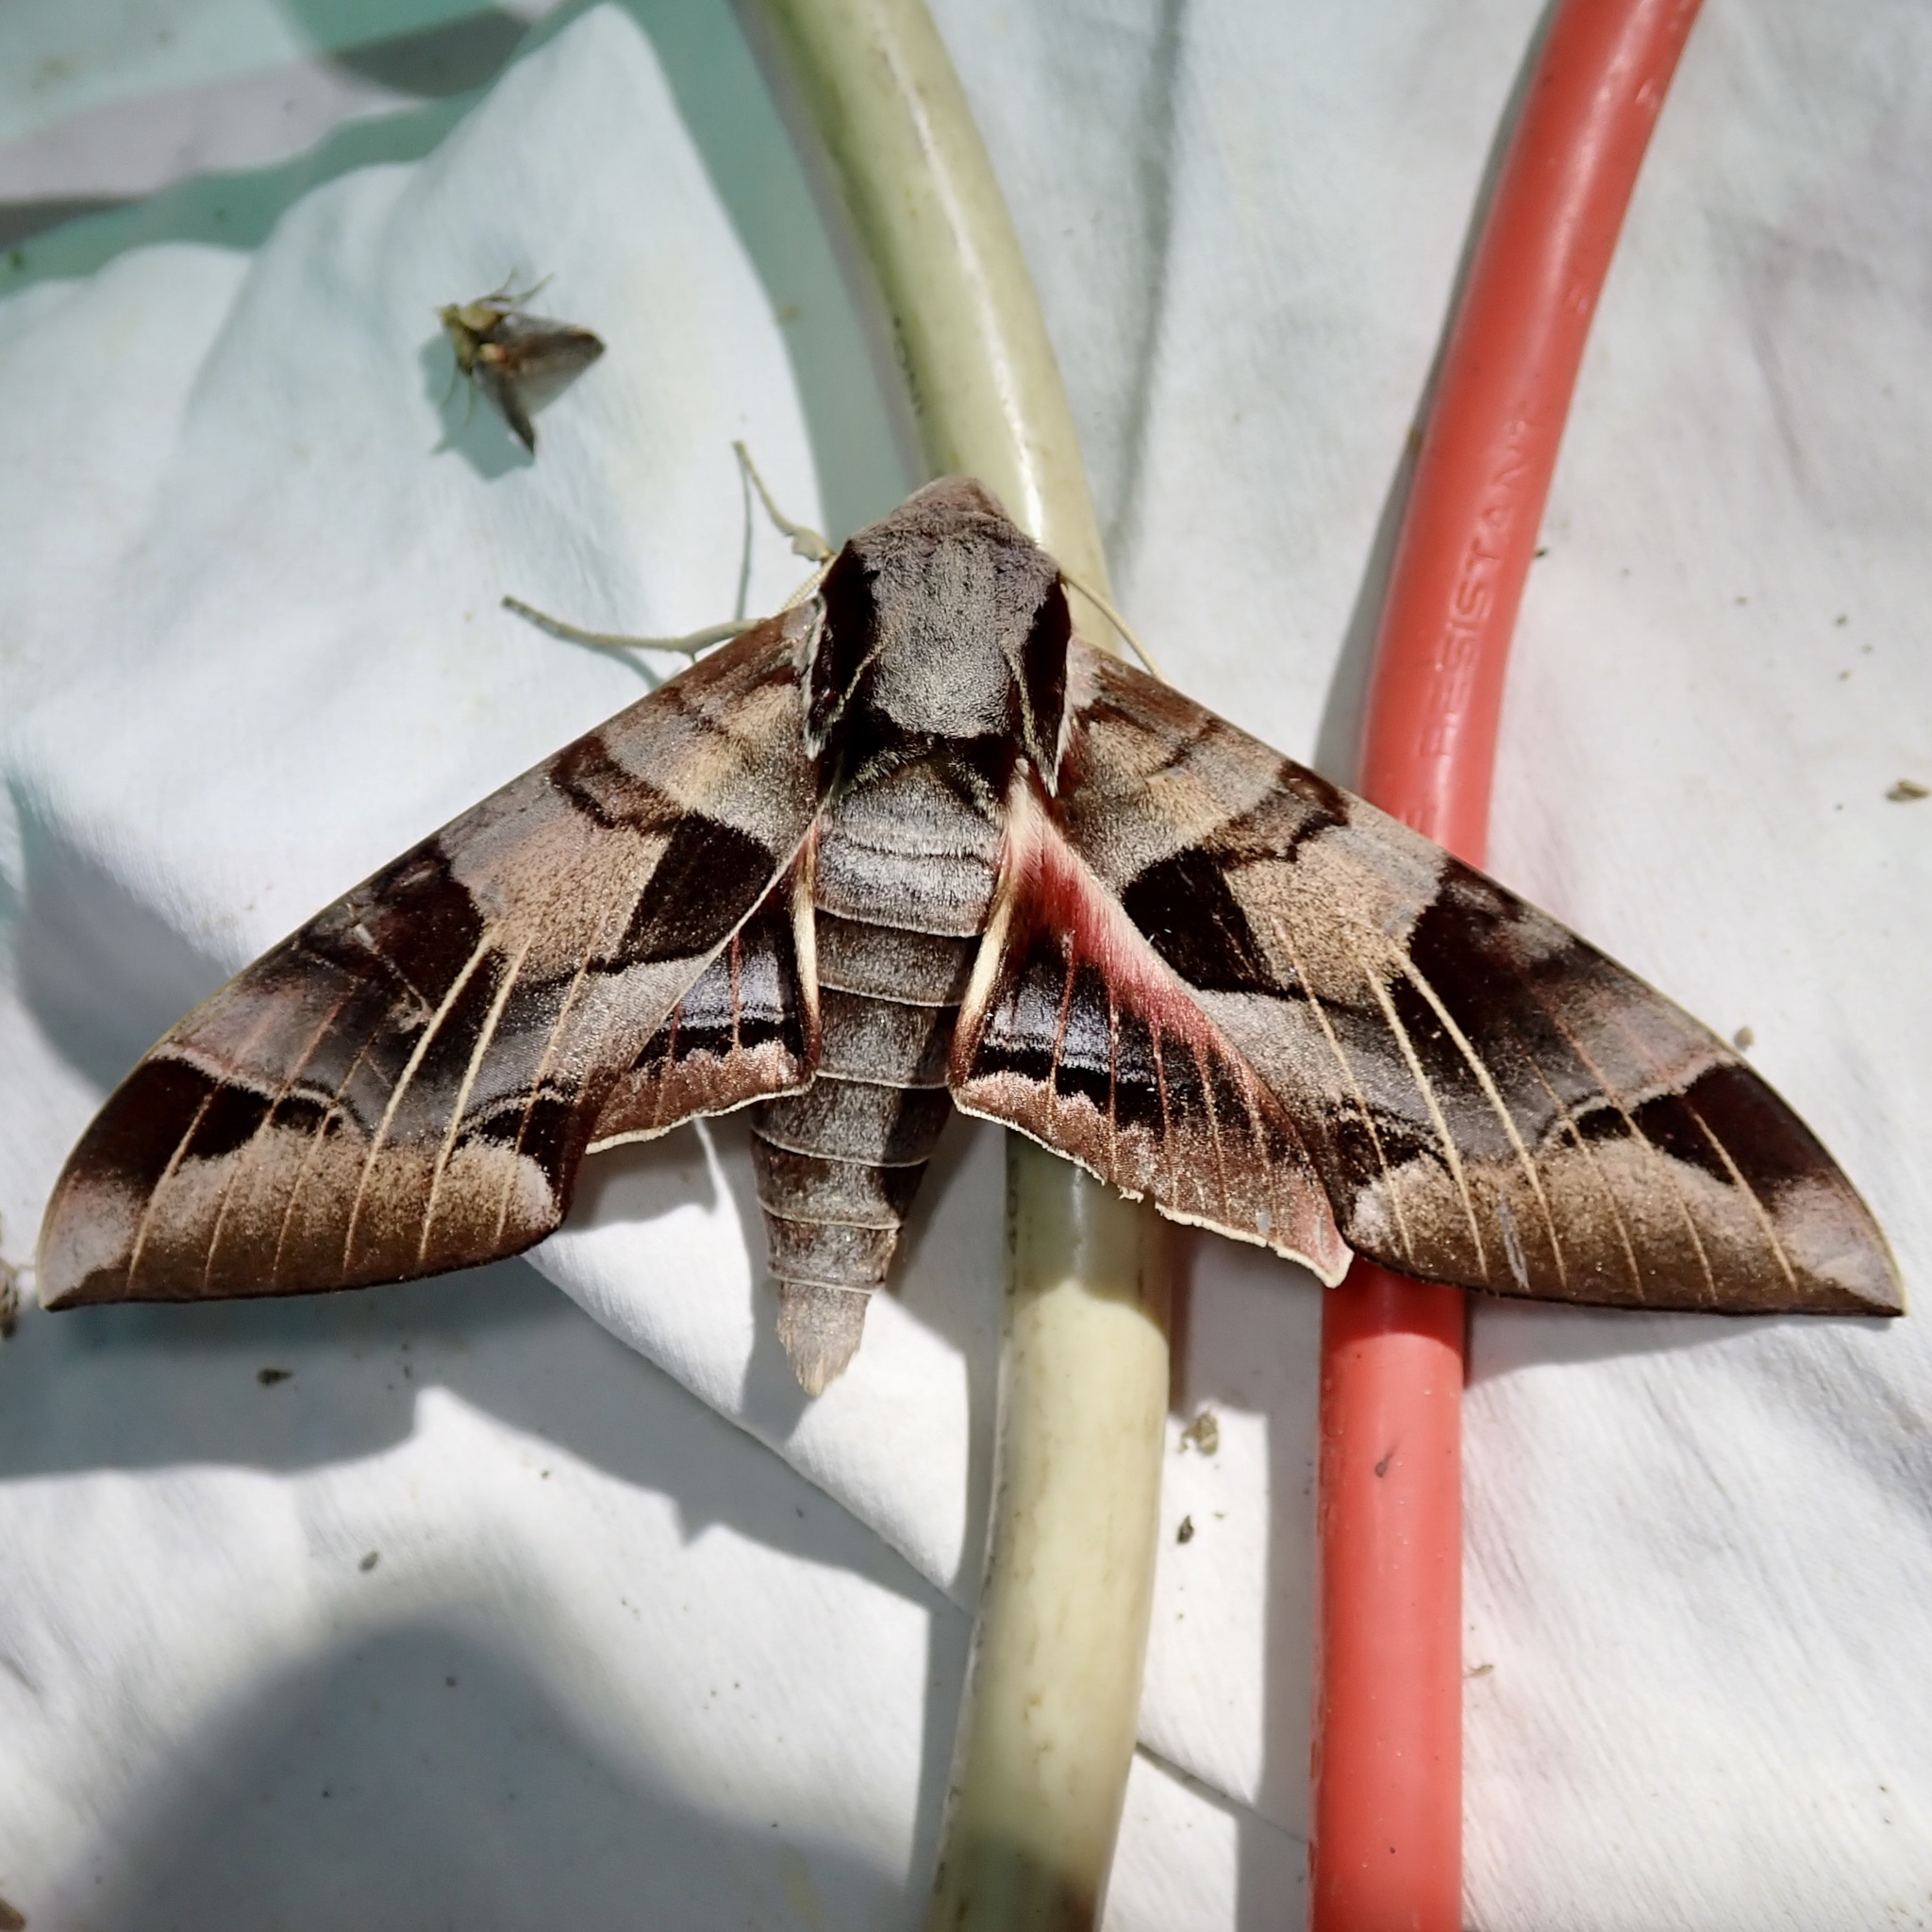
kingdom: Animalia
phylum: Arthropoda
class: Insecta
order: Lepidoptera
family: Sphingidae
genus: Eumorpha
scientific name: Eumorpha typhon
